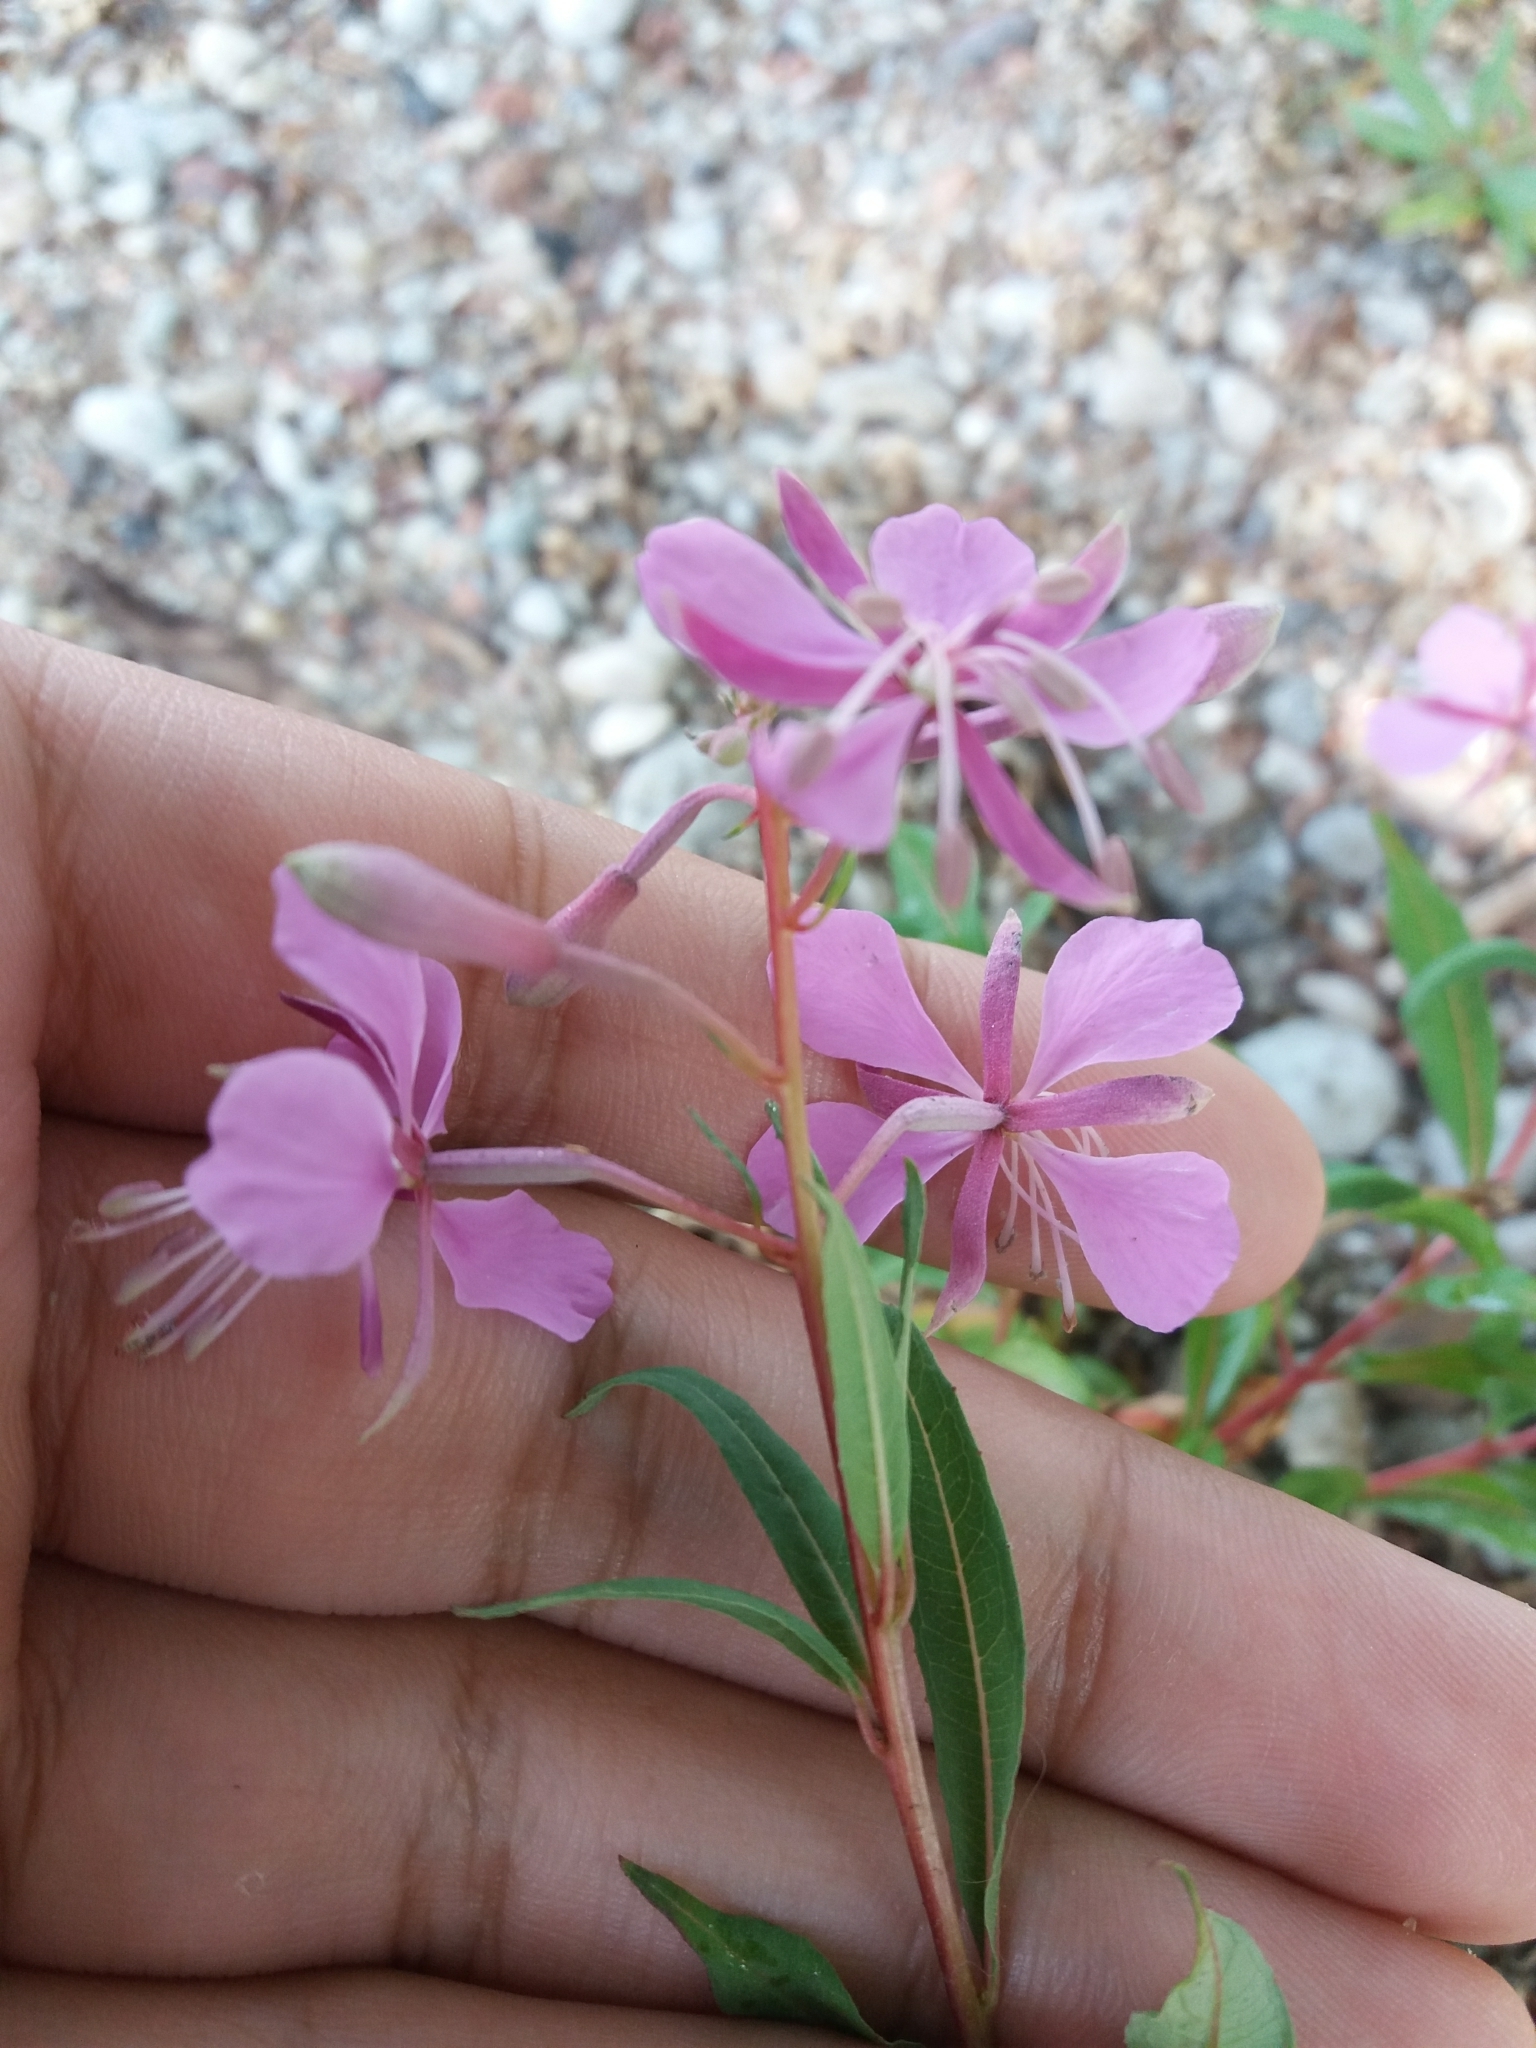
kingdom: Plantae
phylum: Tracheophyta
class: Magnoliopsida
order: Myrtales
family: Onagraceae
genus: Chamaenerion
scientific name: Chamaenerion angustifolium
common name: Fireweed
